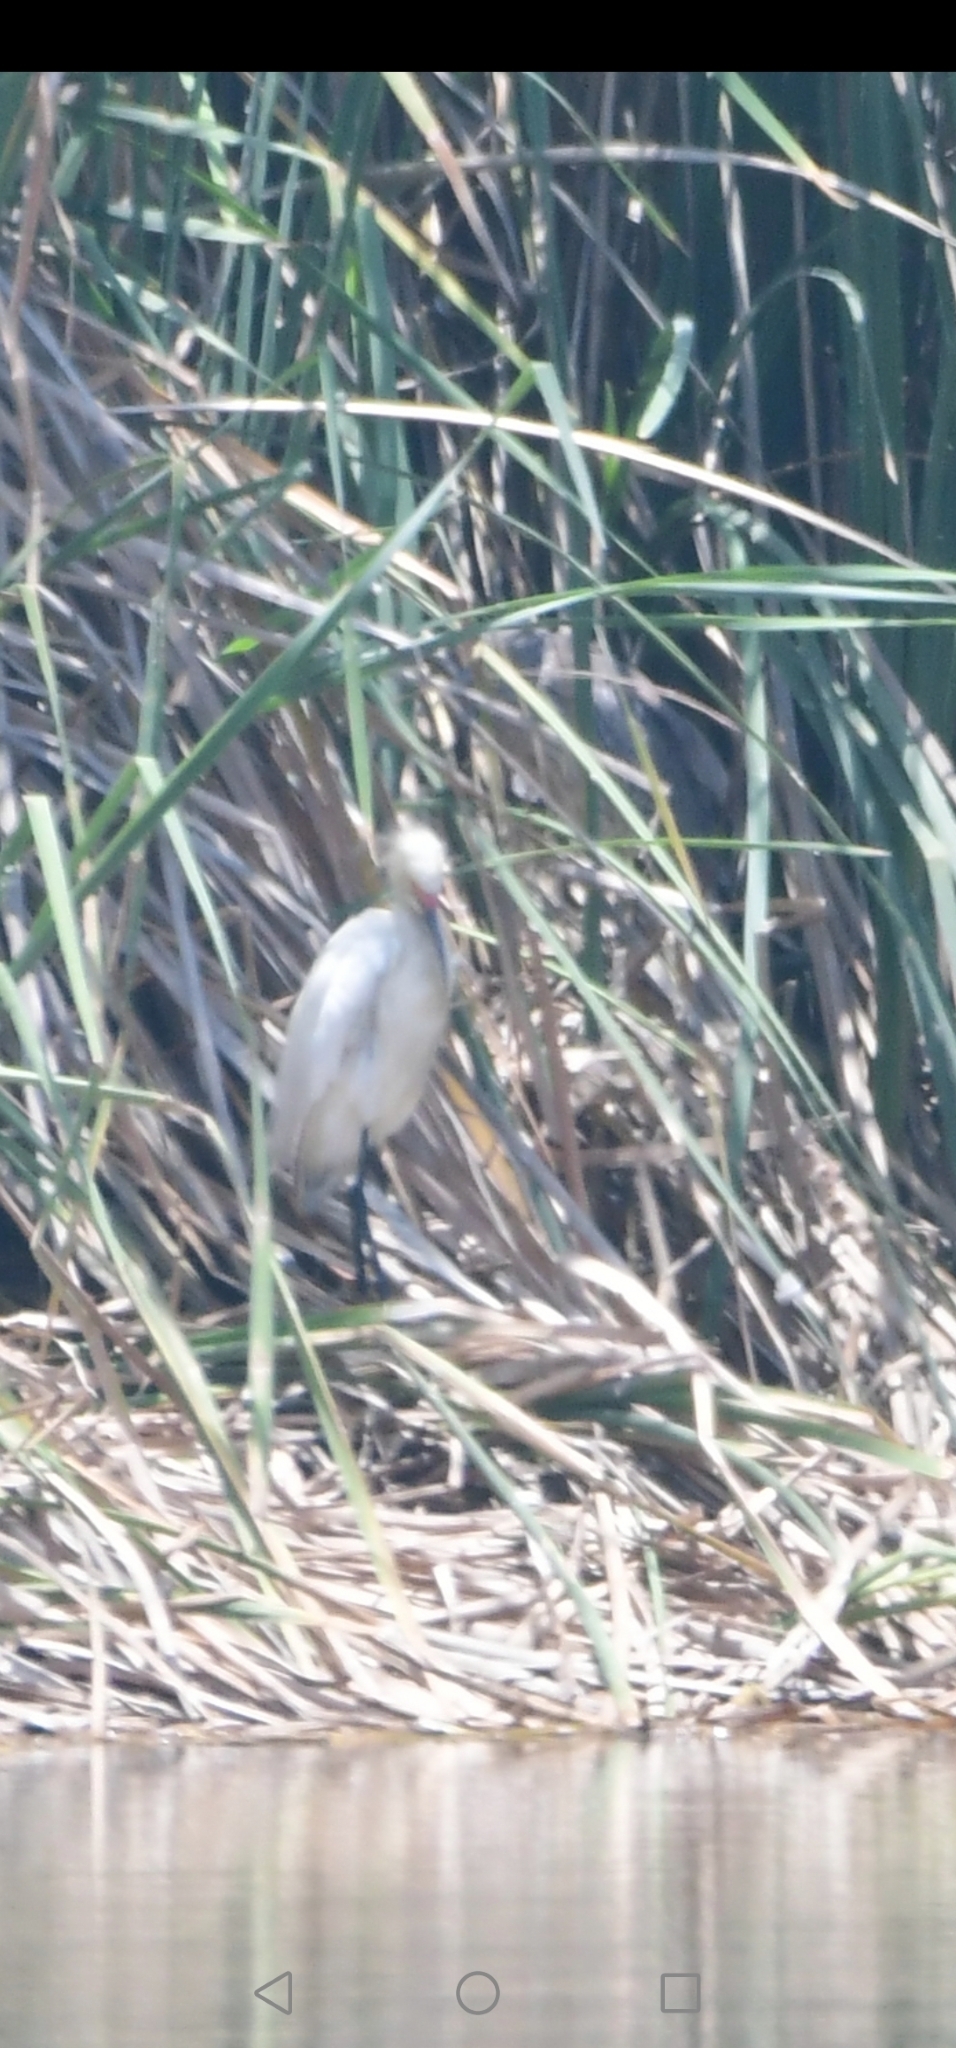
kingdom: Animalia
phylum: Chordata
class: Aves
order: Pelecaniformes
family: Ardeidae
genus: Egretta
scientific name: Egretta thula
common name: Snowy egret
